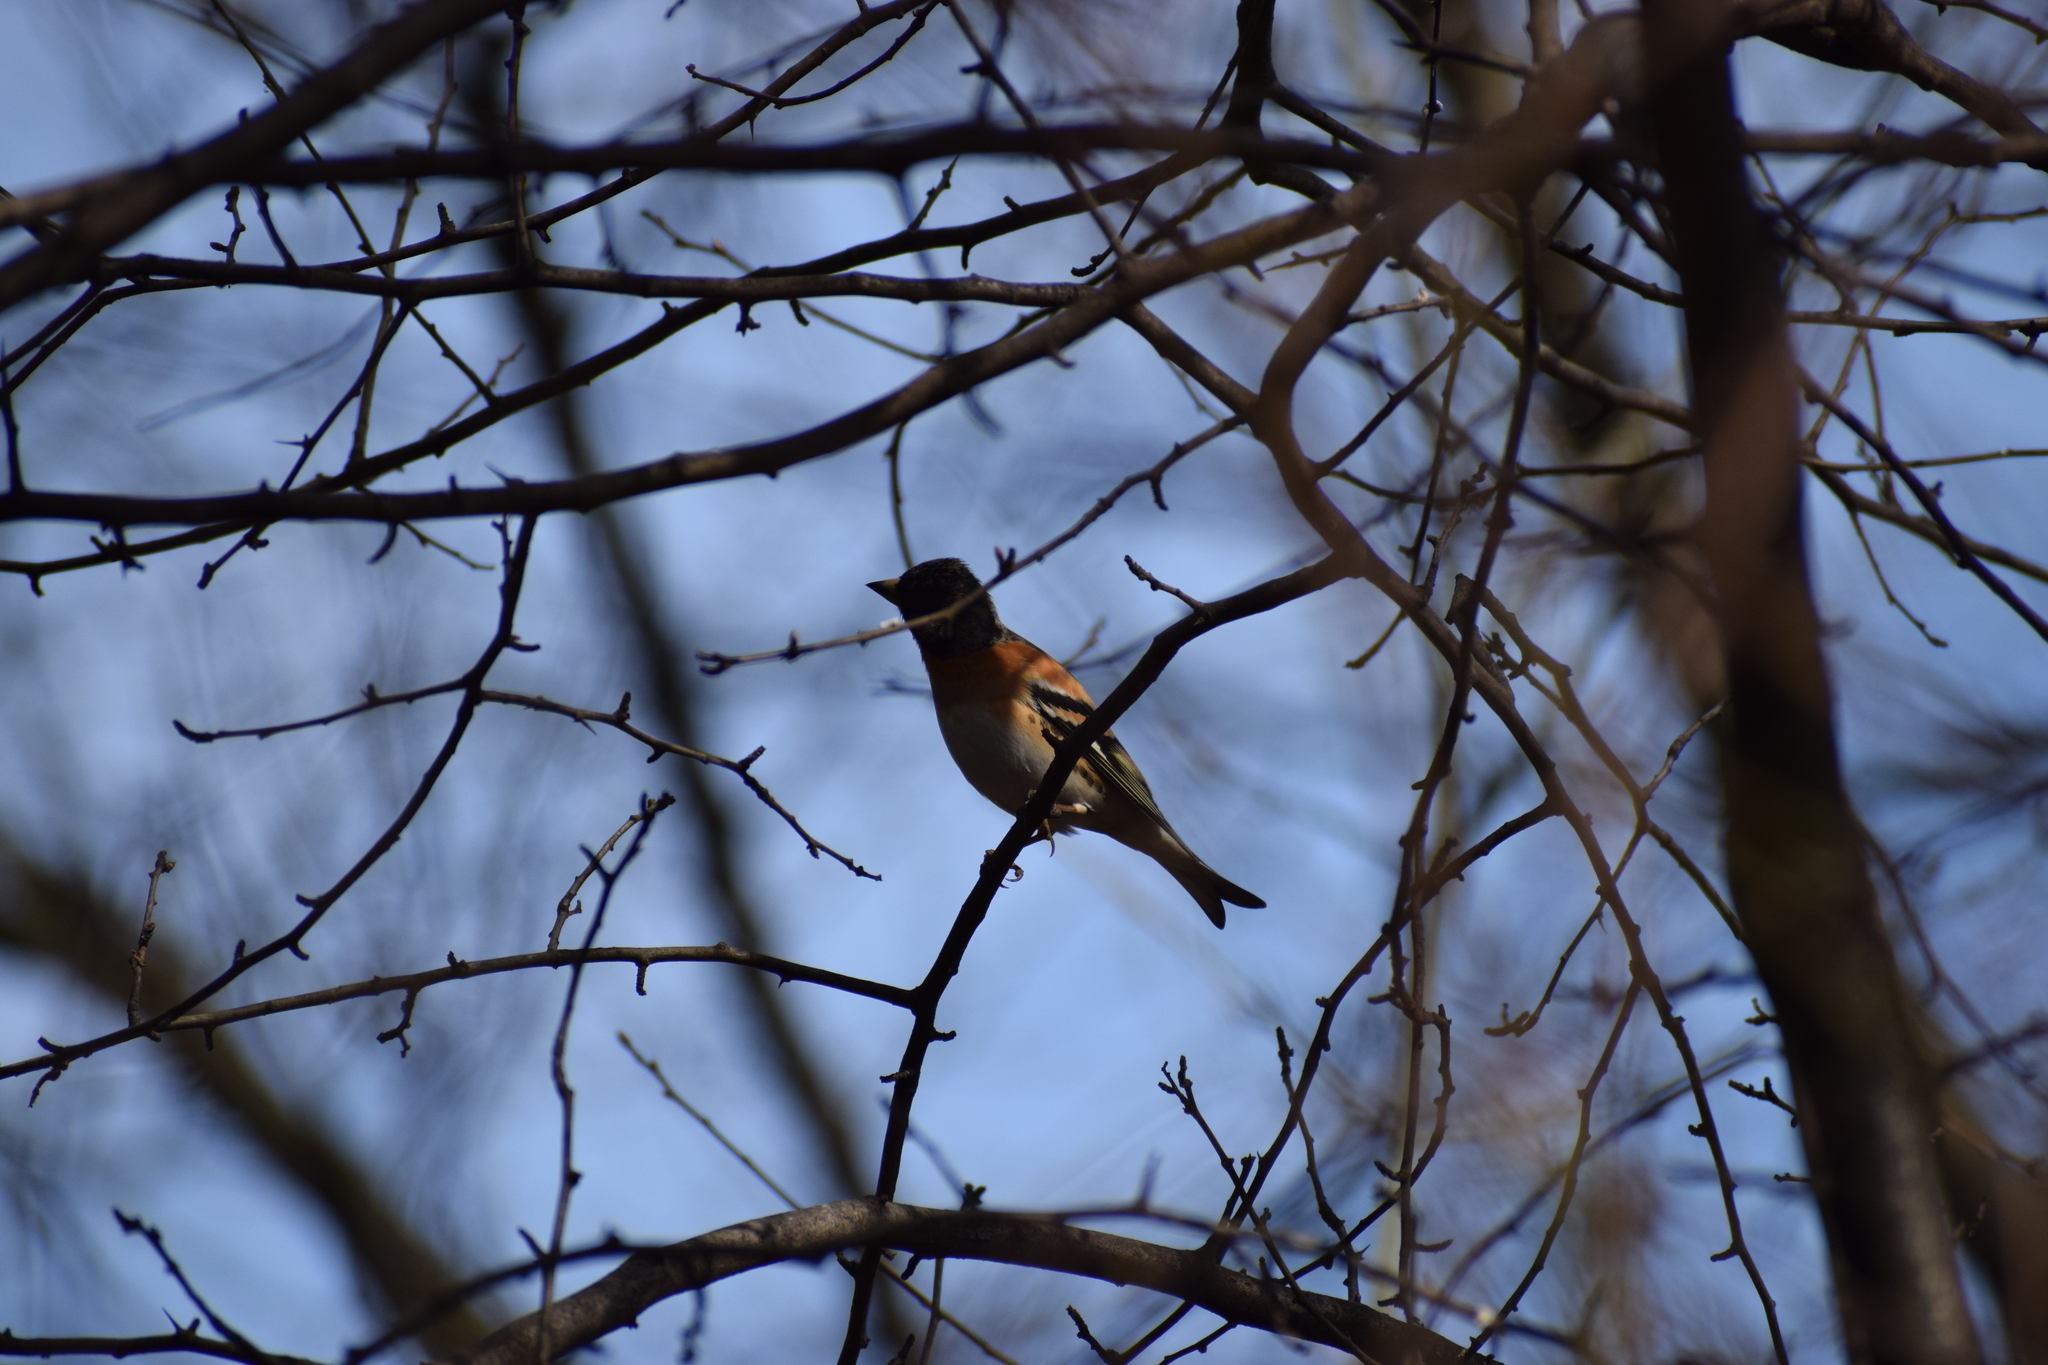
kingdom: Animalia
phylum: Chordata
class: Aves
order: Passeriformes
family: Fringillidae
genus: Fringilla
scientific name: Fringilla montifringilla
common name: Brambling
